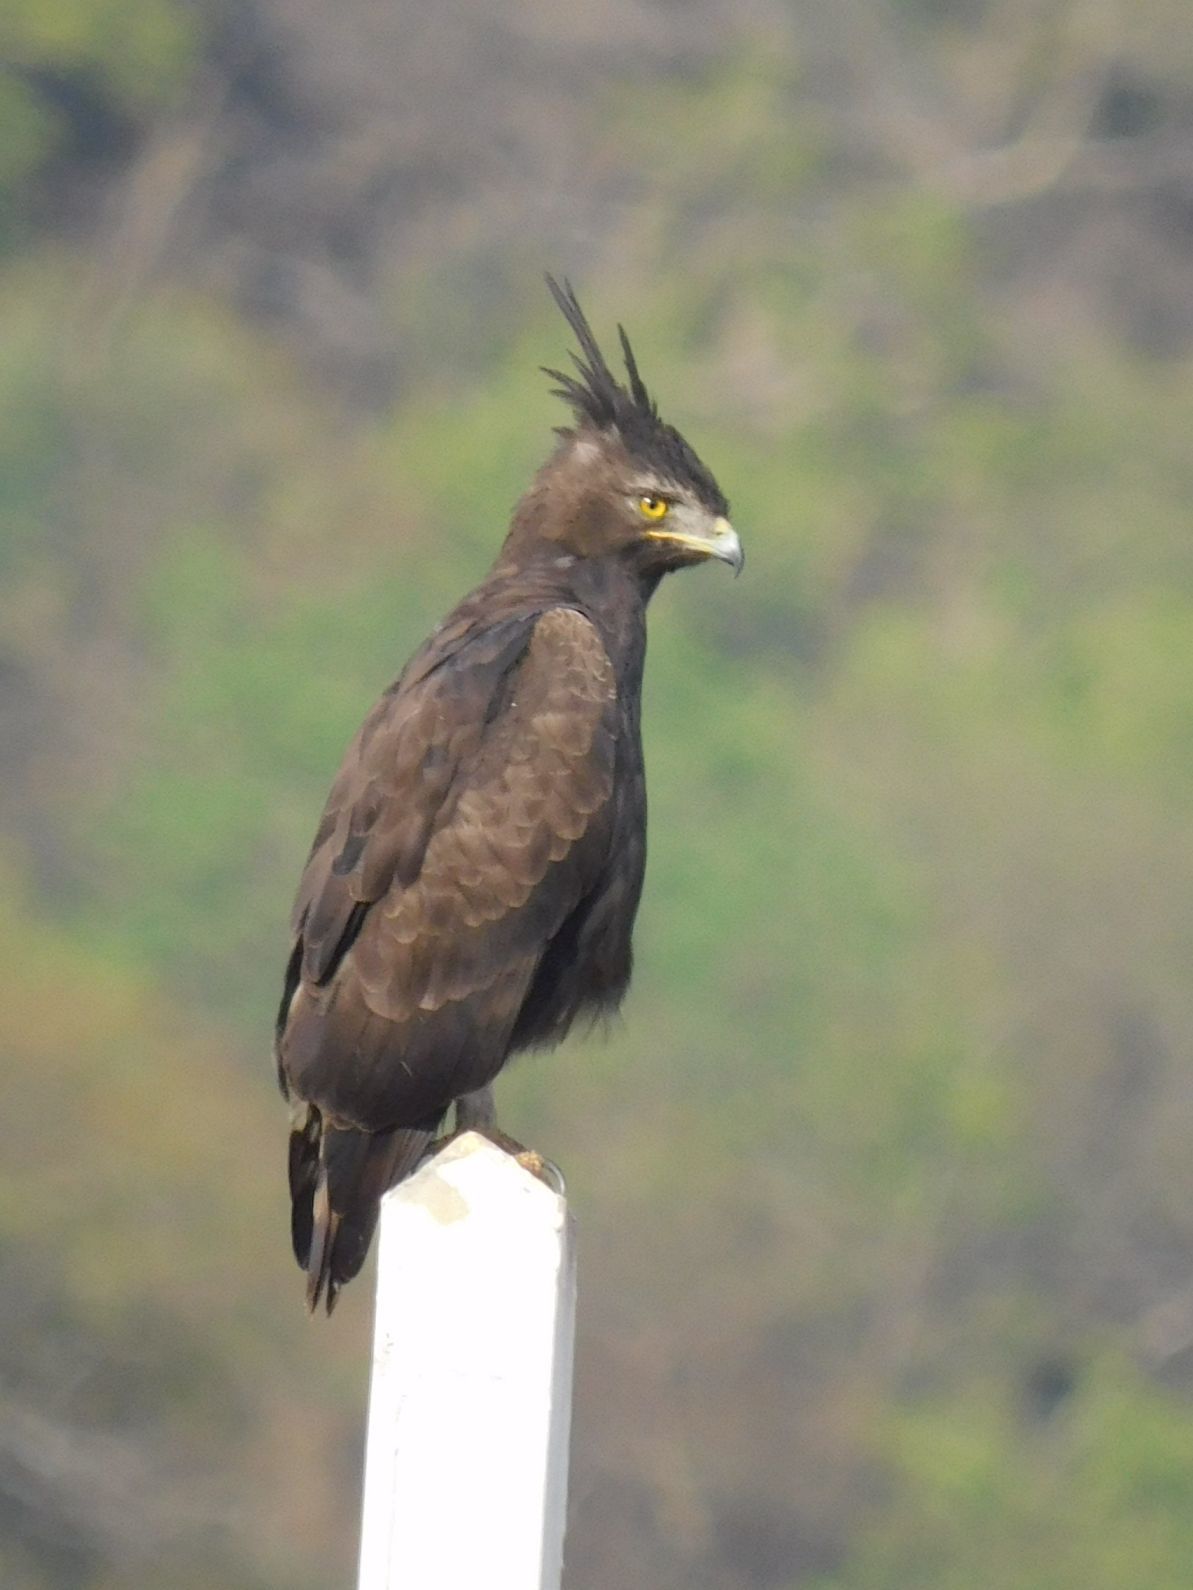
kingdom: Animalia
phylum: Chordata
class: Aves
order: Accipitriformes
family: Accipitridae
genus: Lophaetus
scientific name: Lophaetus occipitalis
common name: Long-crested eagle
